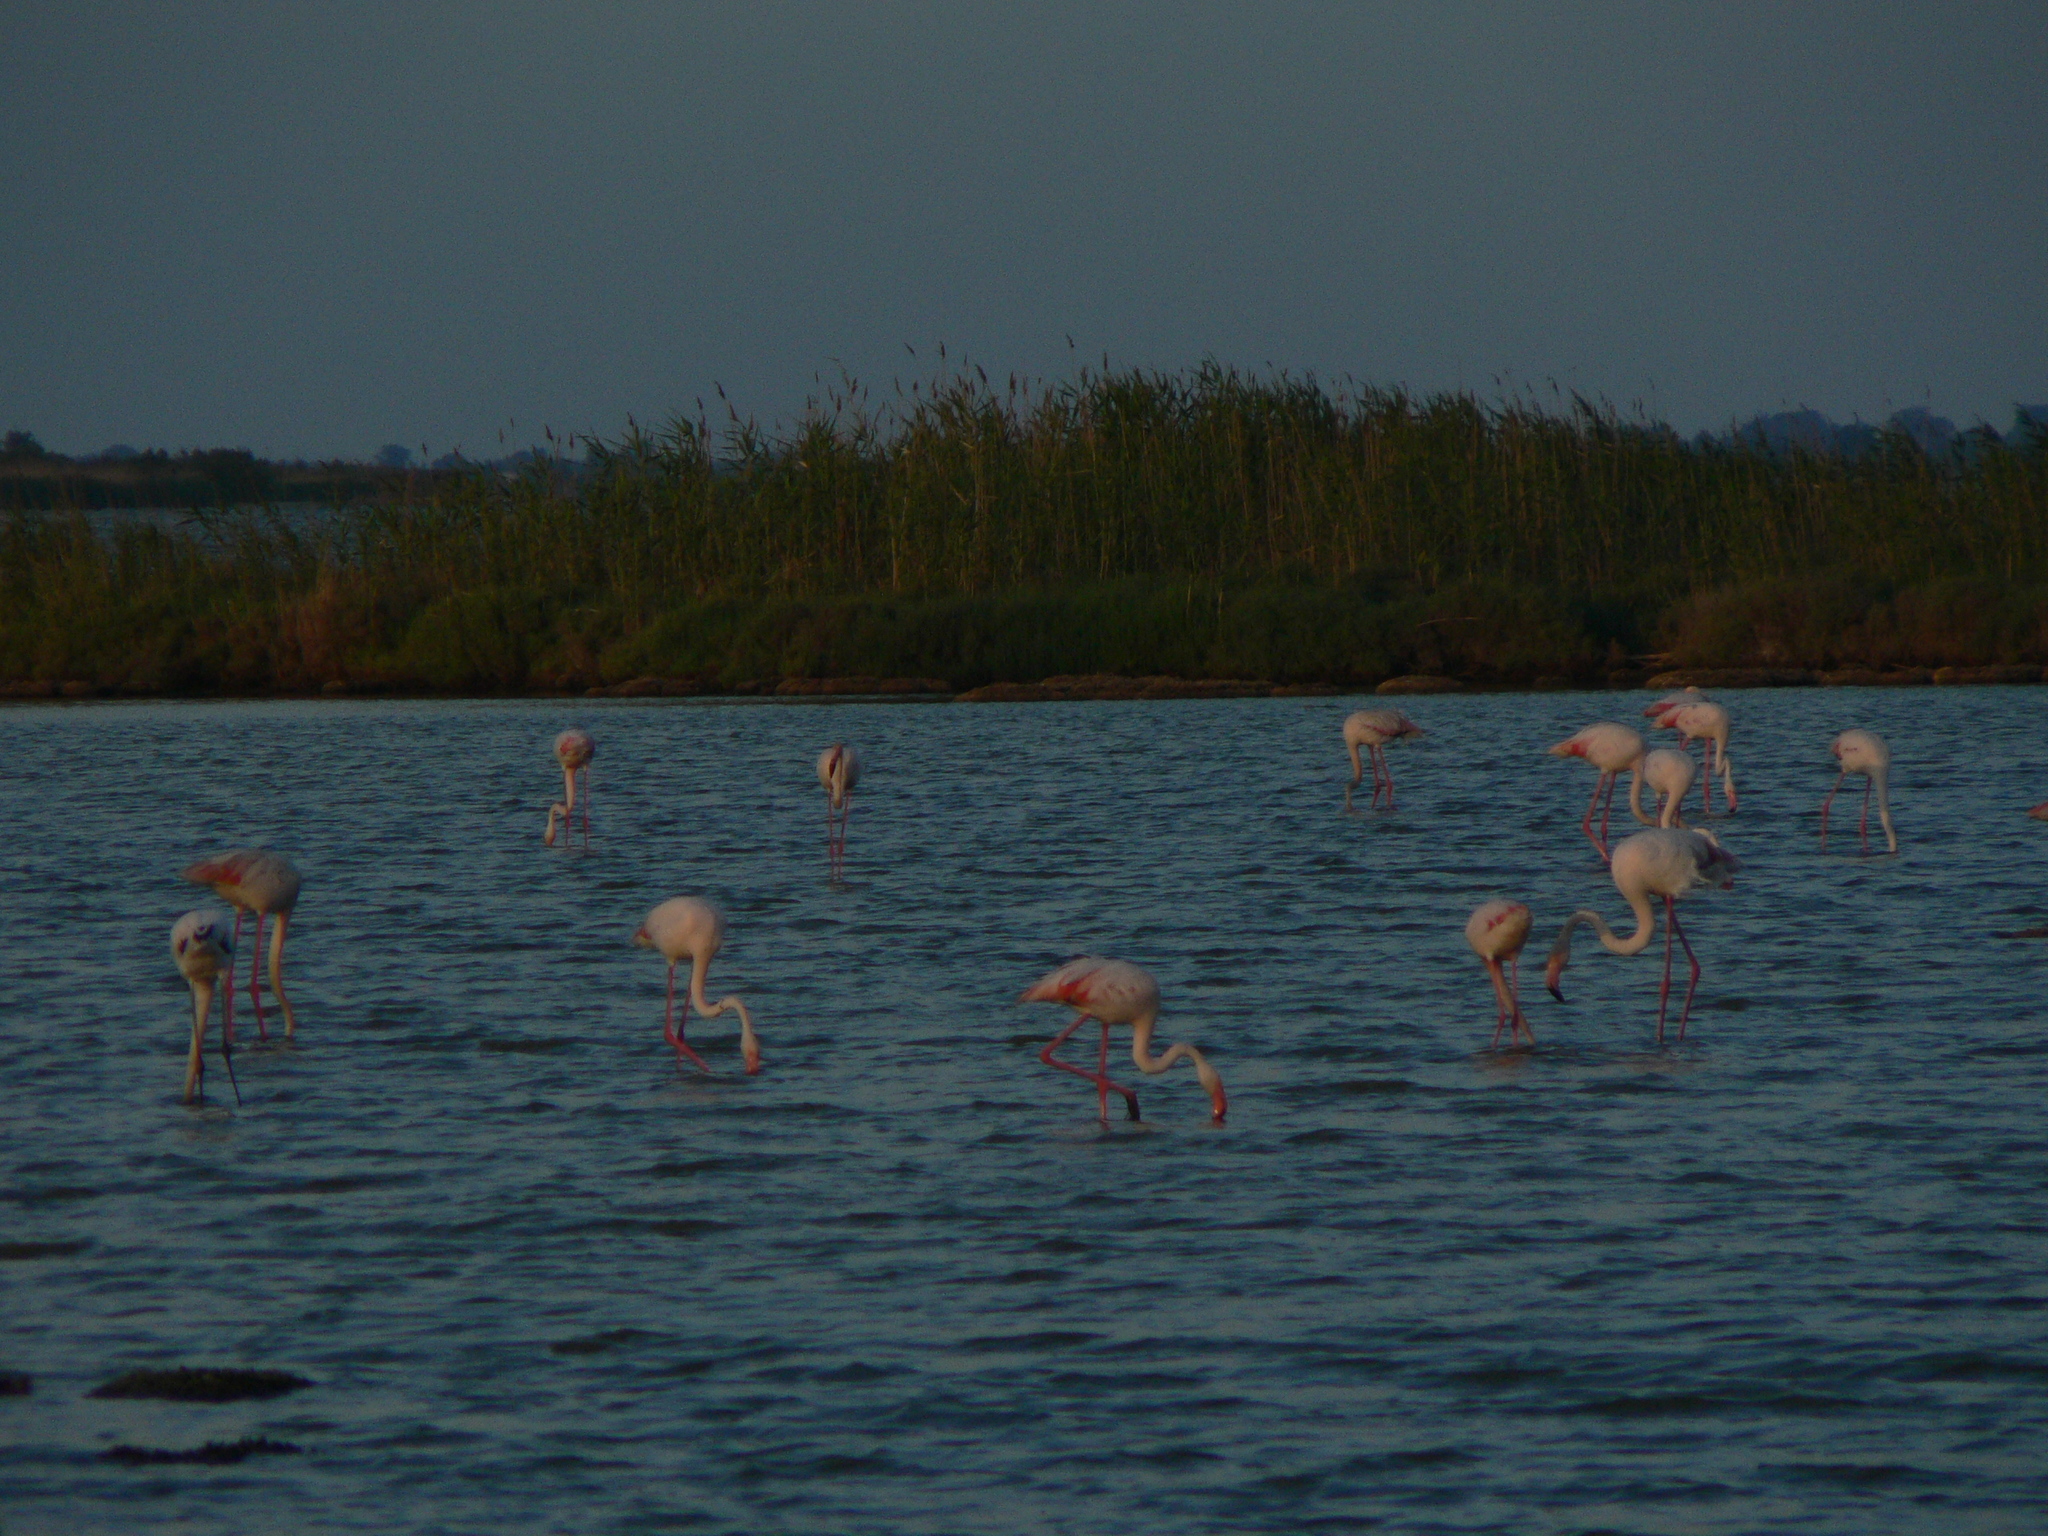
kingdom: Animalia
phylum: Chordata
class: Aves
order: Phoenicopteriformes
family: Phoenicopteridae
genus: Phoenicopterus
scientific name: Phoenicopterus roseus
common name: Greater flamingo
